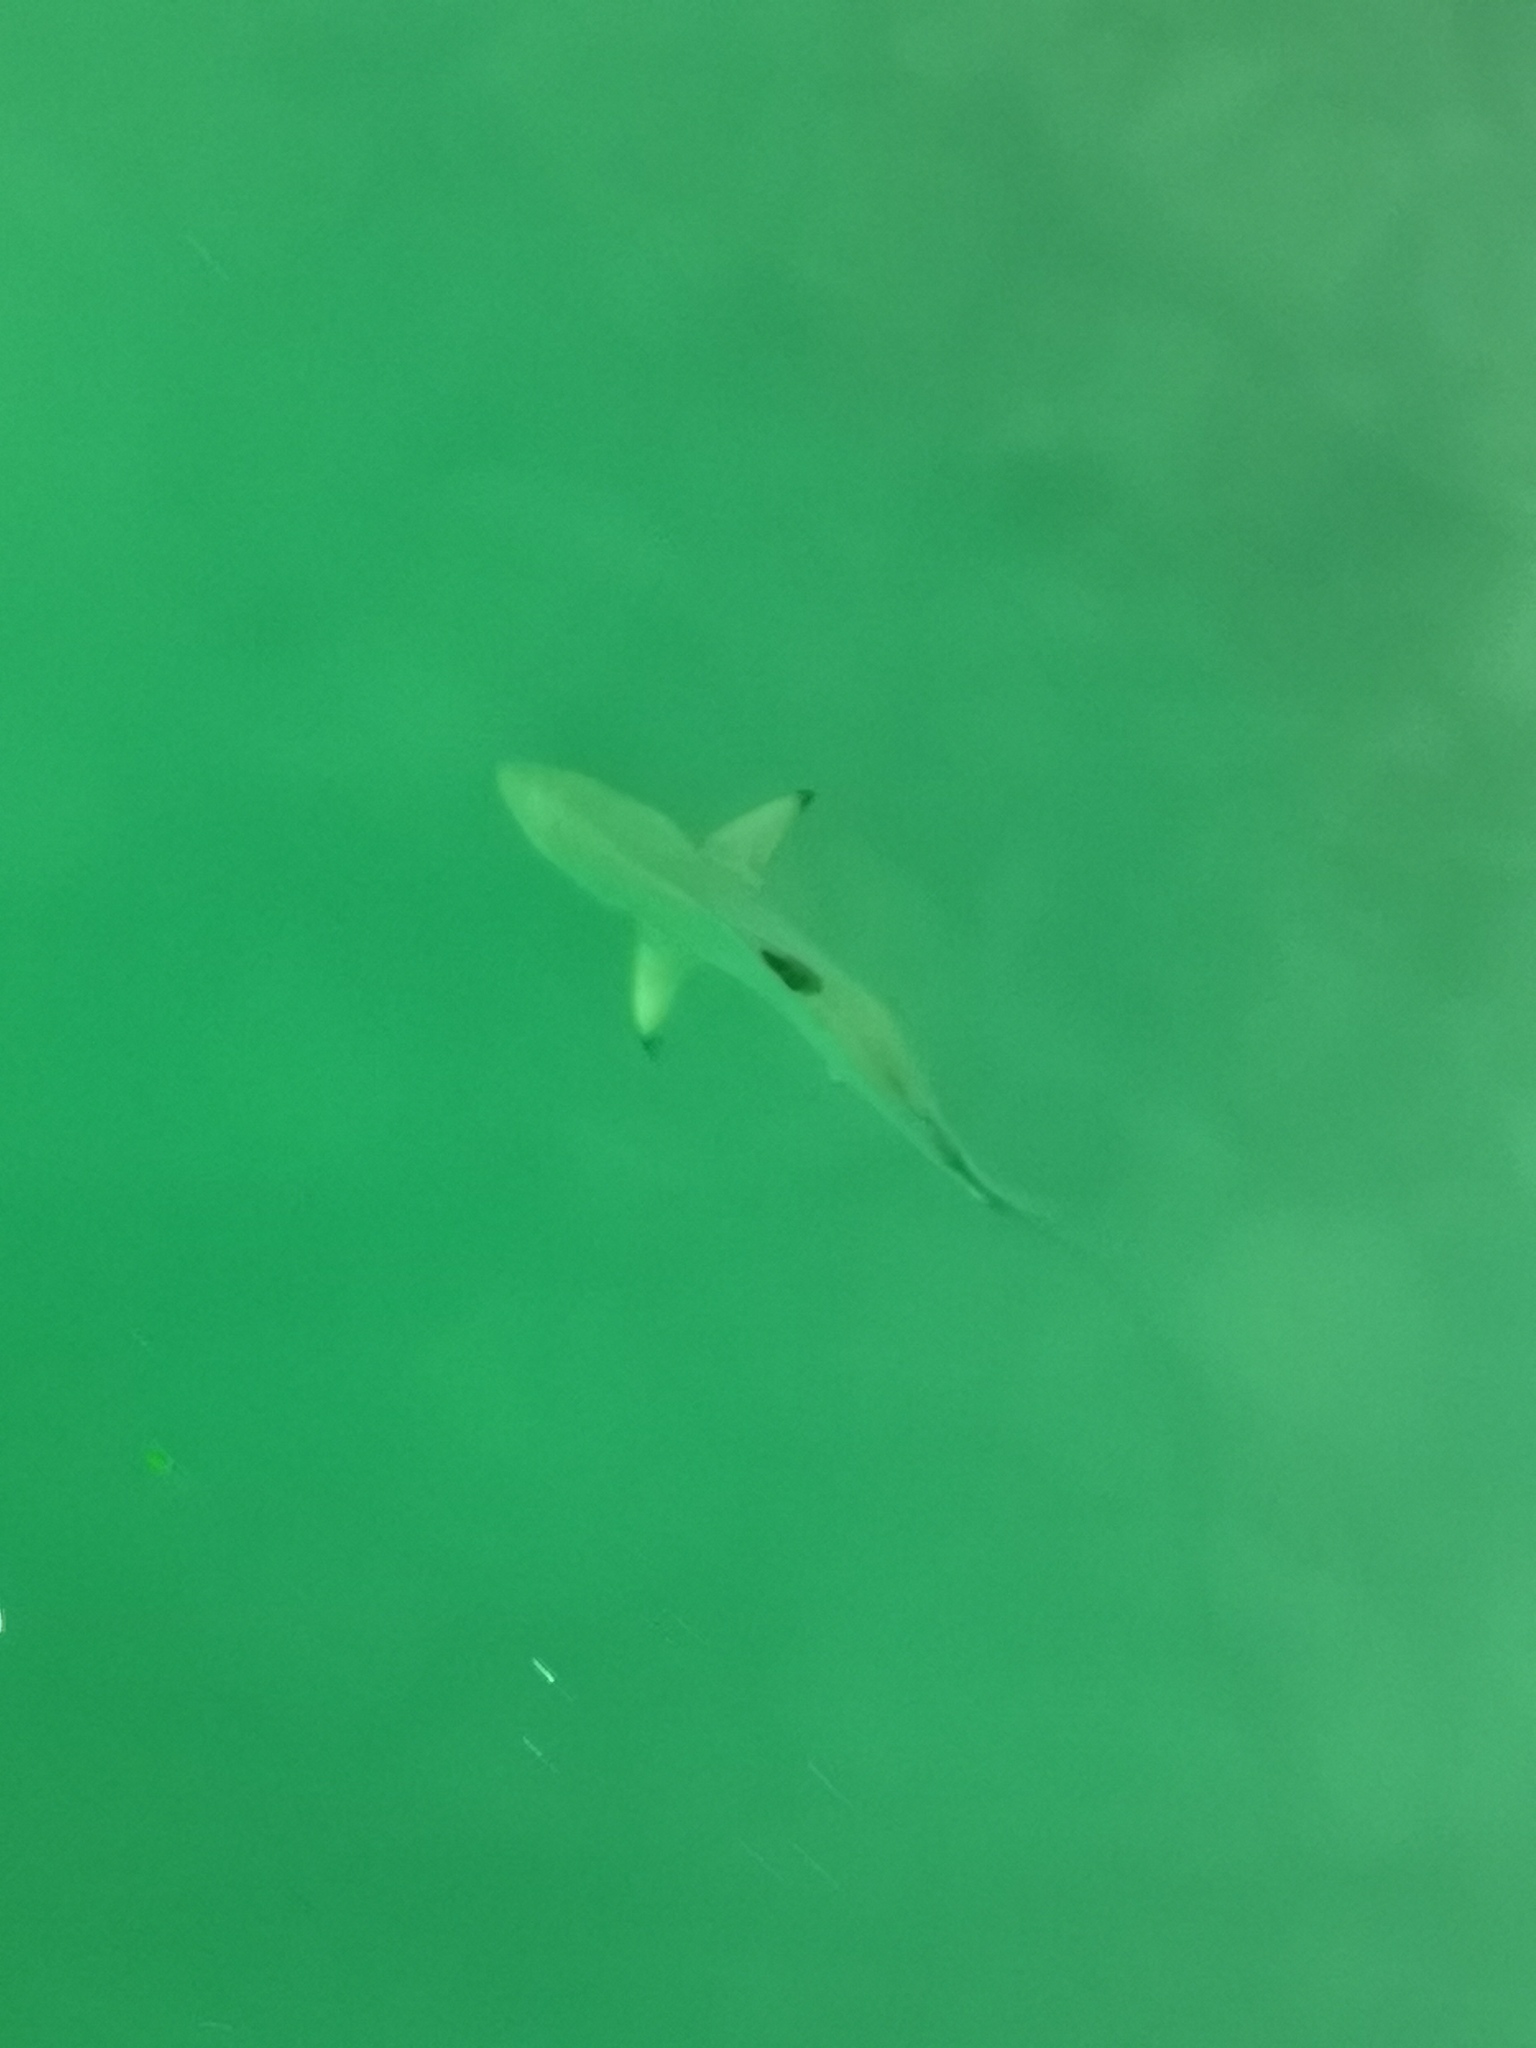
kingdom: Animalia
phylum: Chordata
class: Elasmobranchii
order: Carcharhiniformes
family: Carcharhinidae
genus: Carcharhinus
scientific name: Carcharhinus limbatus
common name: Blacktip shark
